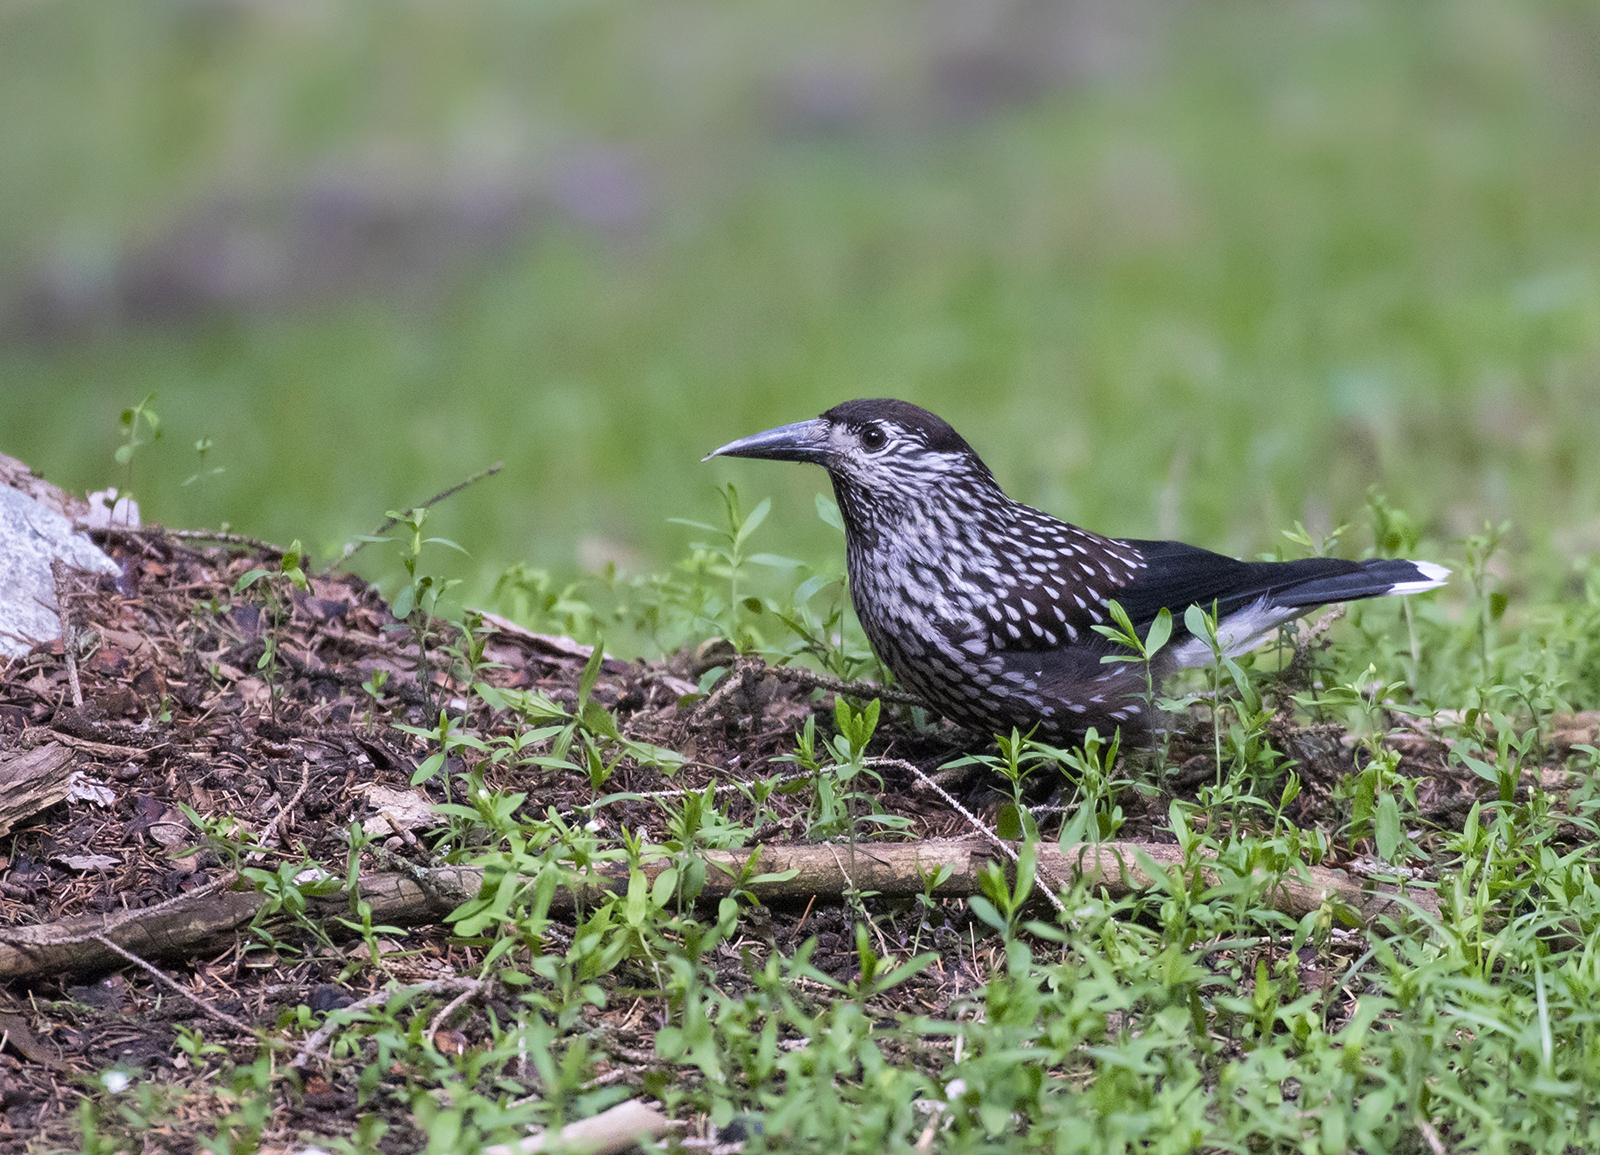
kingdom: Animalia
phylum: Chordata
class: Aves
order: Passeriformes
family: Corvidae
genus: Nucifraga
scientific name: Nucifraga caryocatactes
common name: Spotted nutcracker
